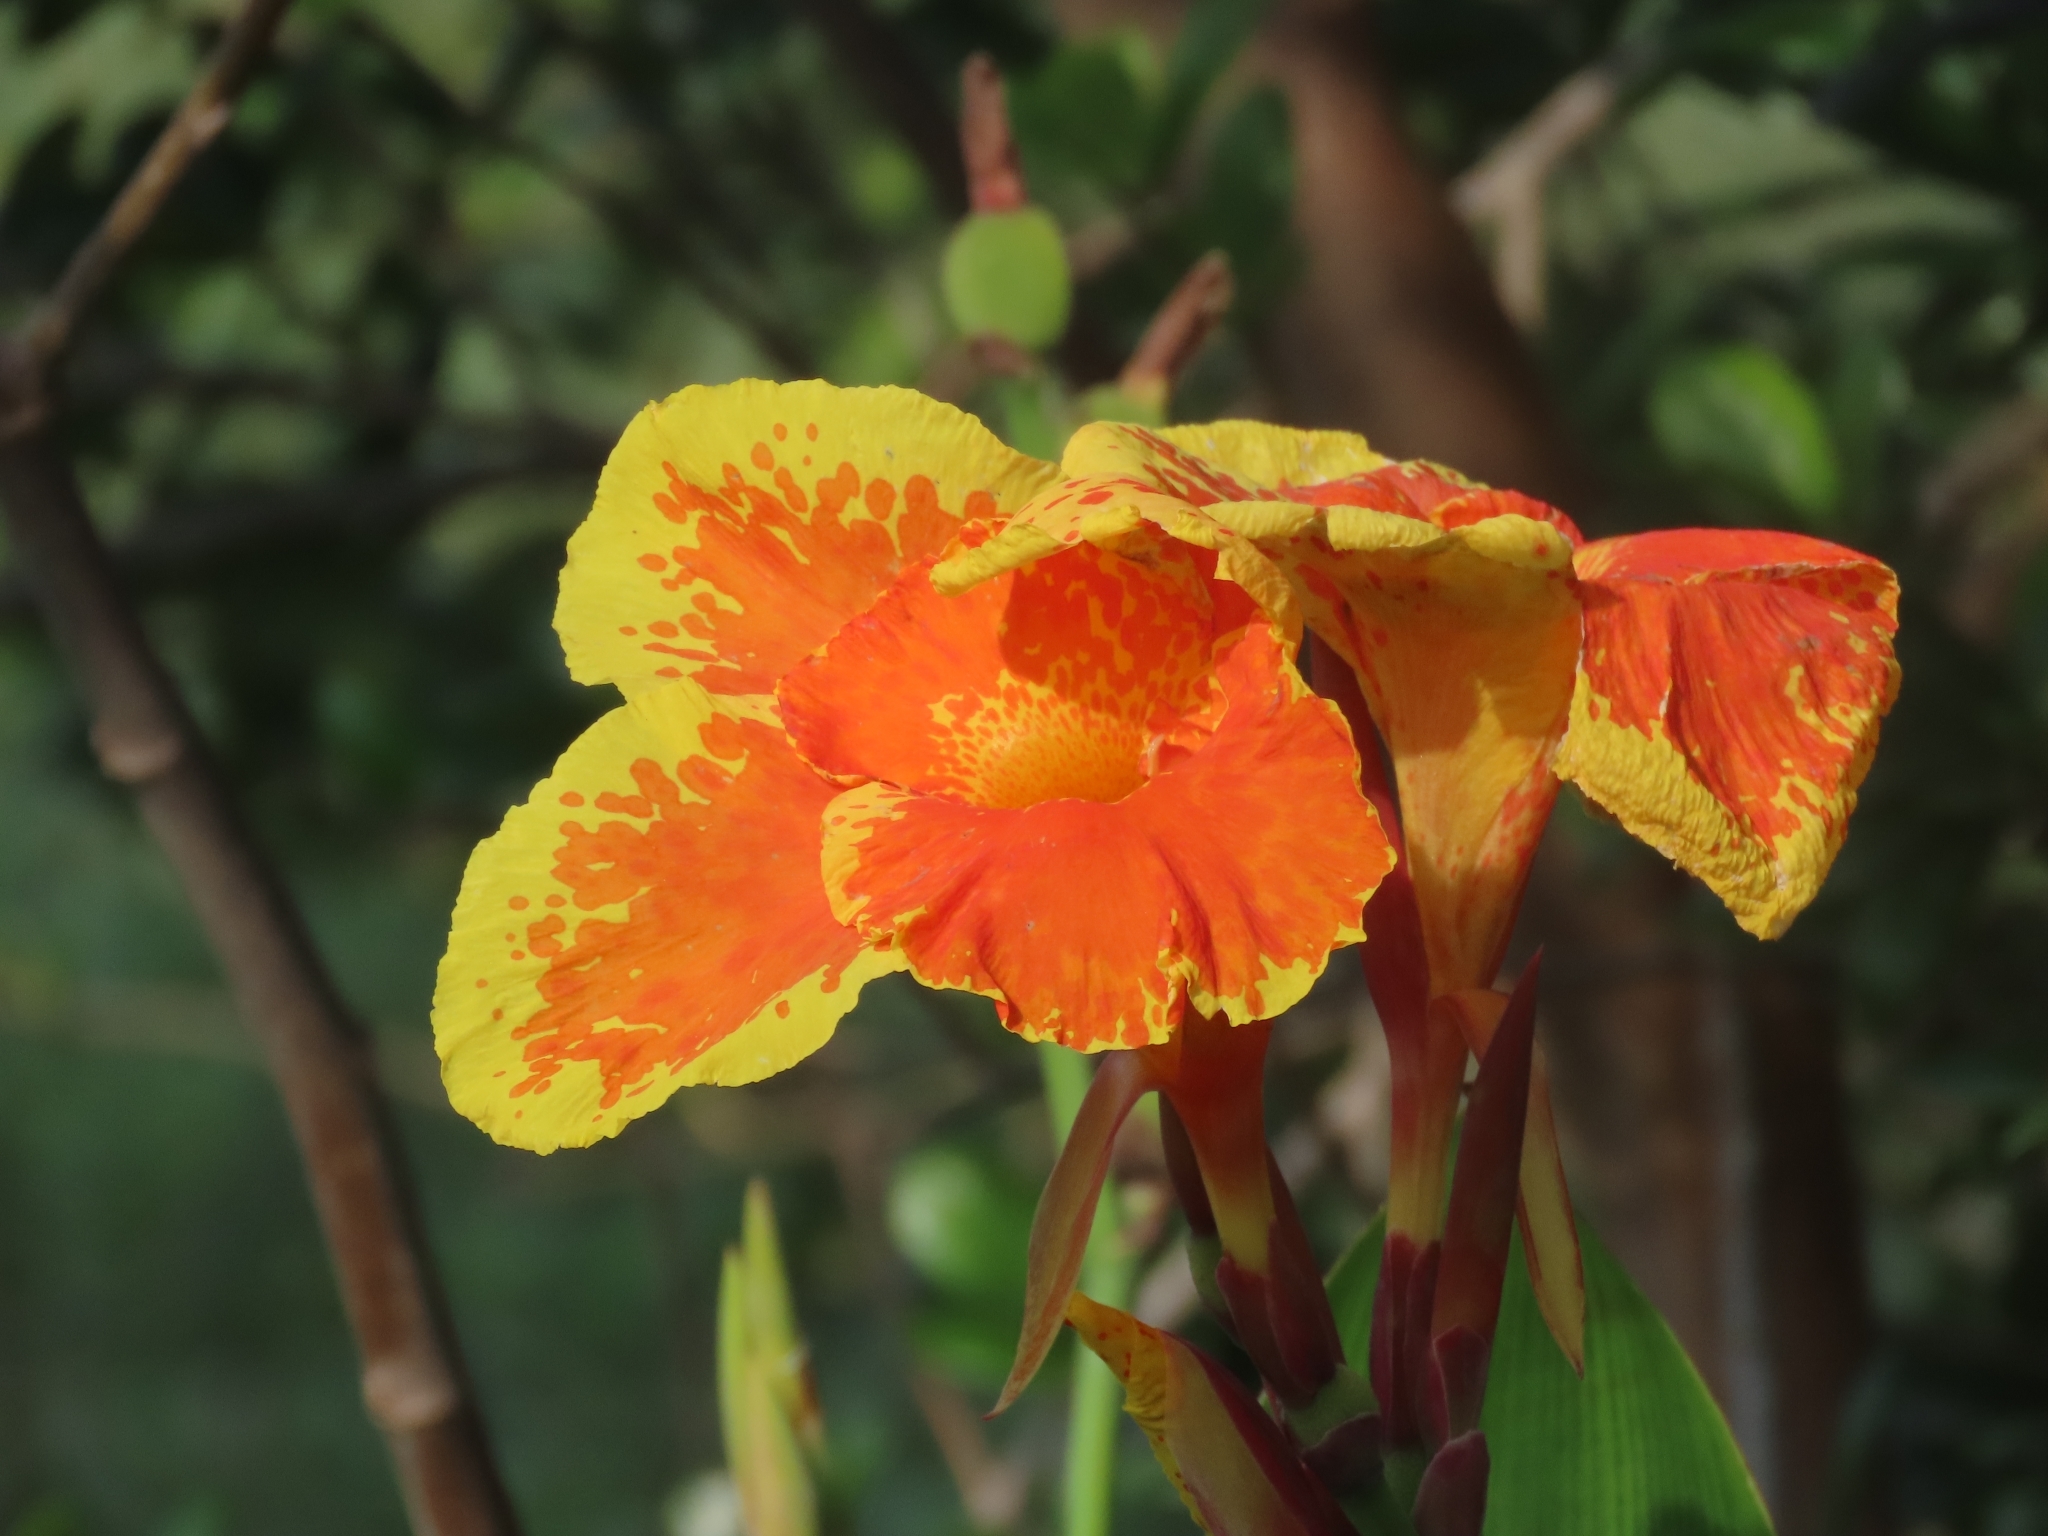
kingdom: Plantae
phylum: Tracheophyta
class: Liliopsida
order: Zingiberales
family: Cannaceae
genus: Canna
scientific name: Canna hybrida
